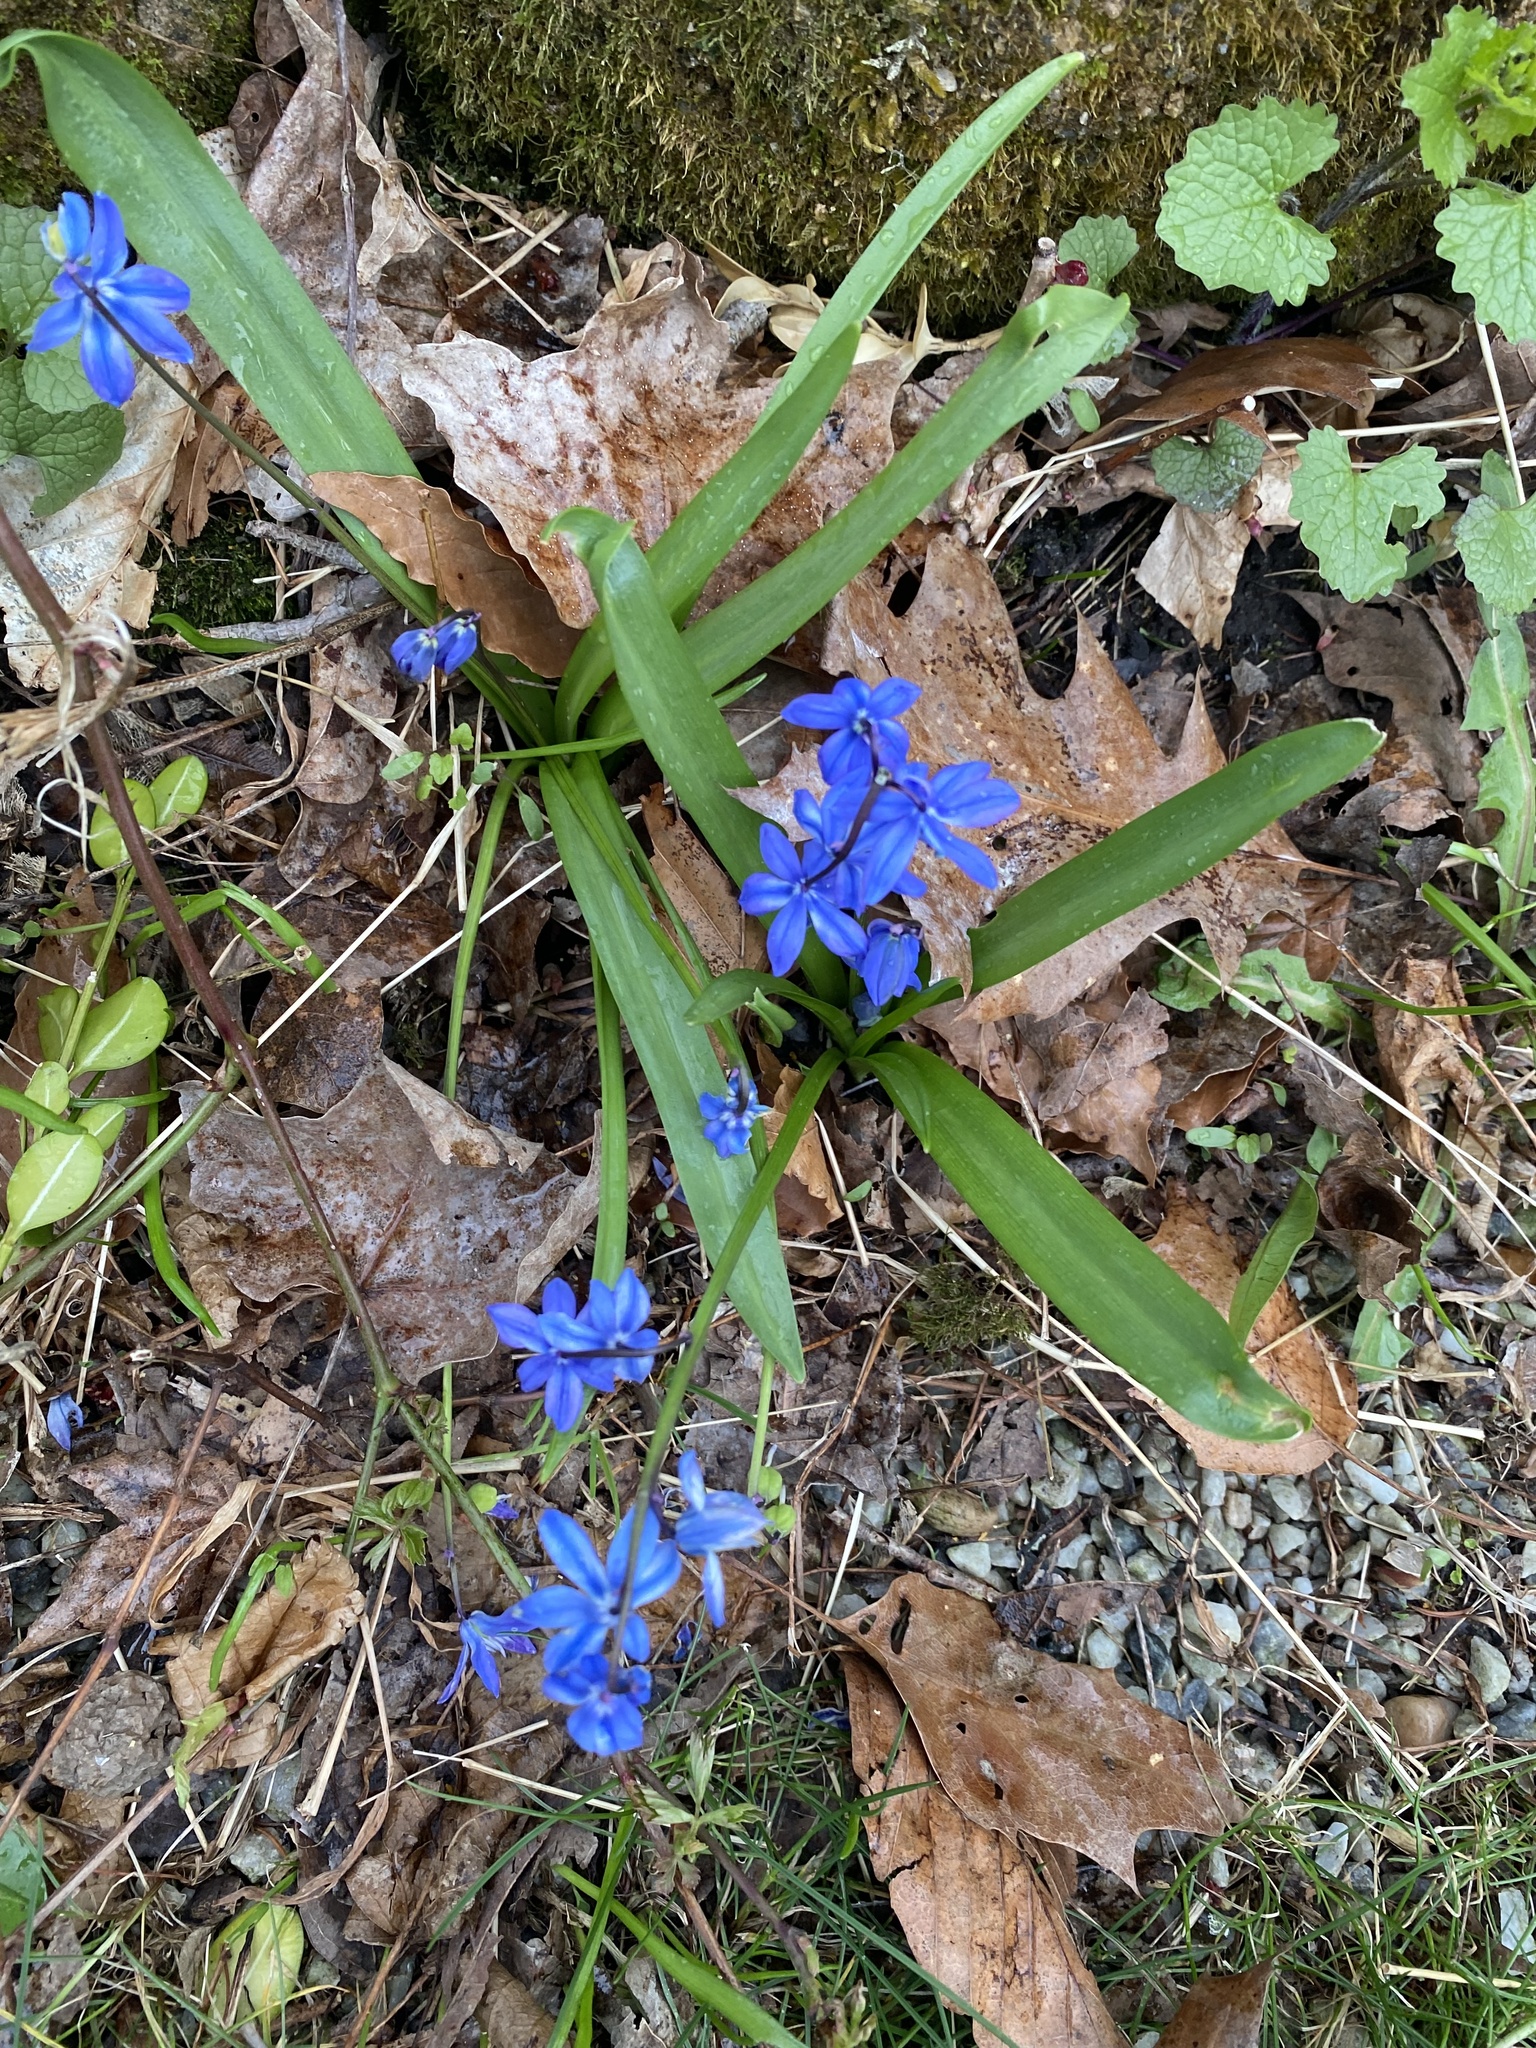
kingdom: Plantae
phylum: Tracheophyta
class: Liliopsida
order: Asparagales
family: Asparagaceae
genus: Scilla
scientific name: Scilla siberica
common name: Siberian squill
